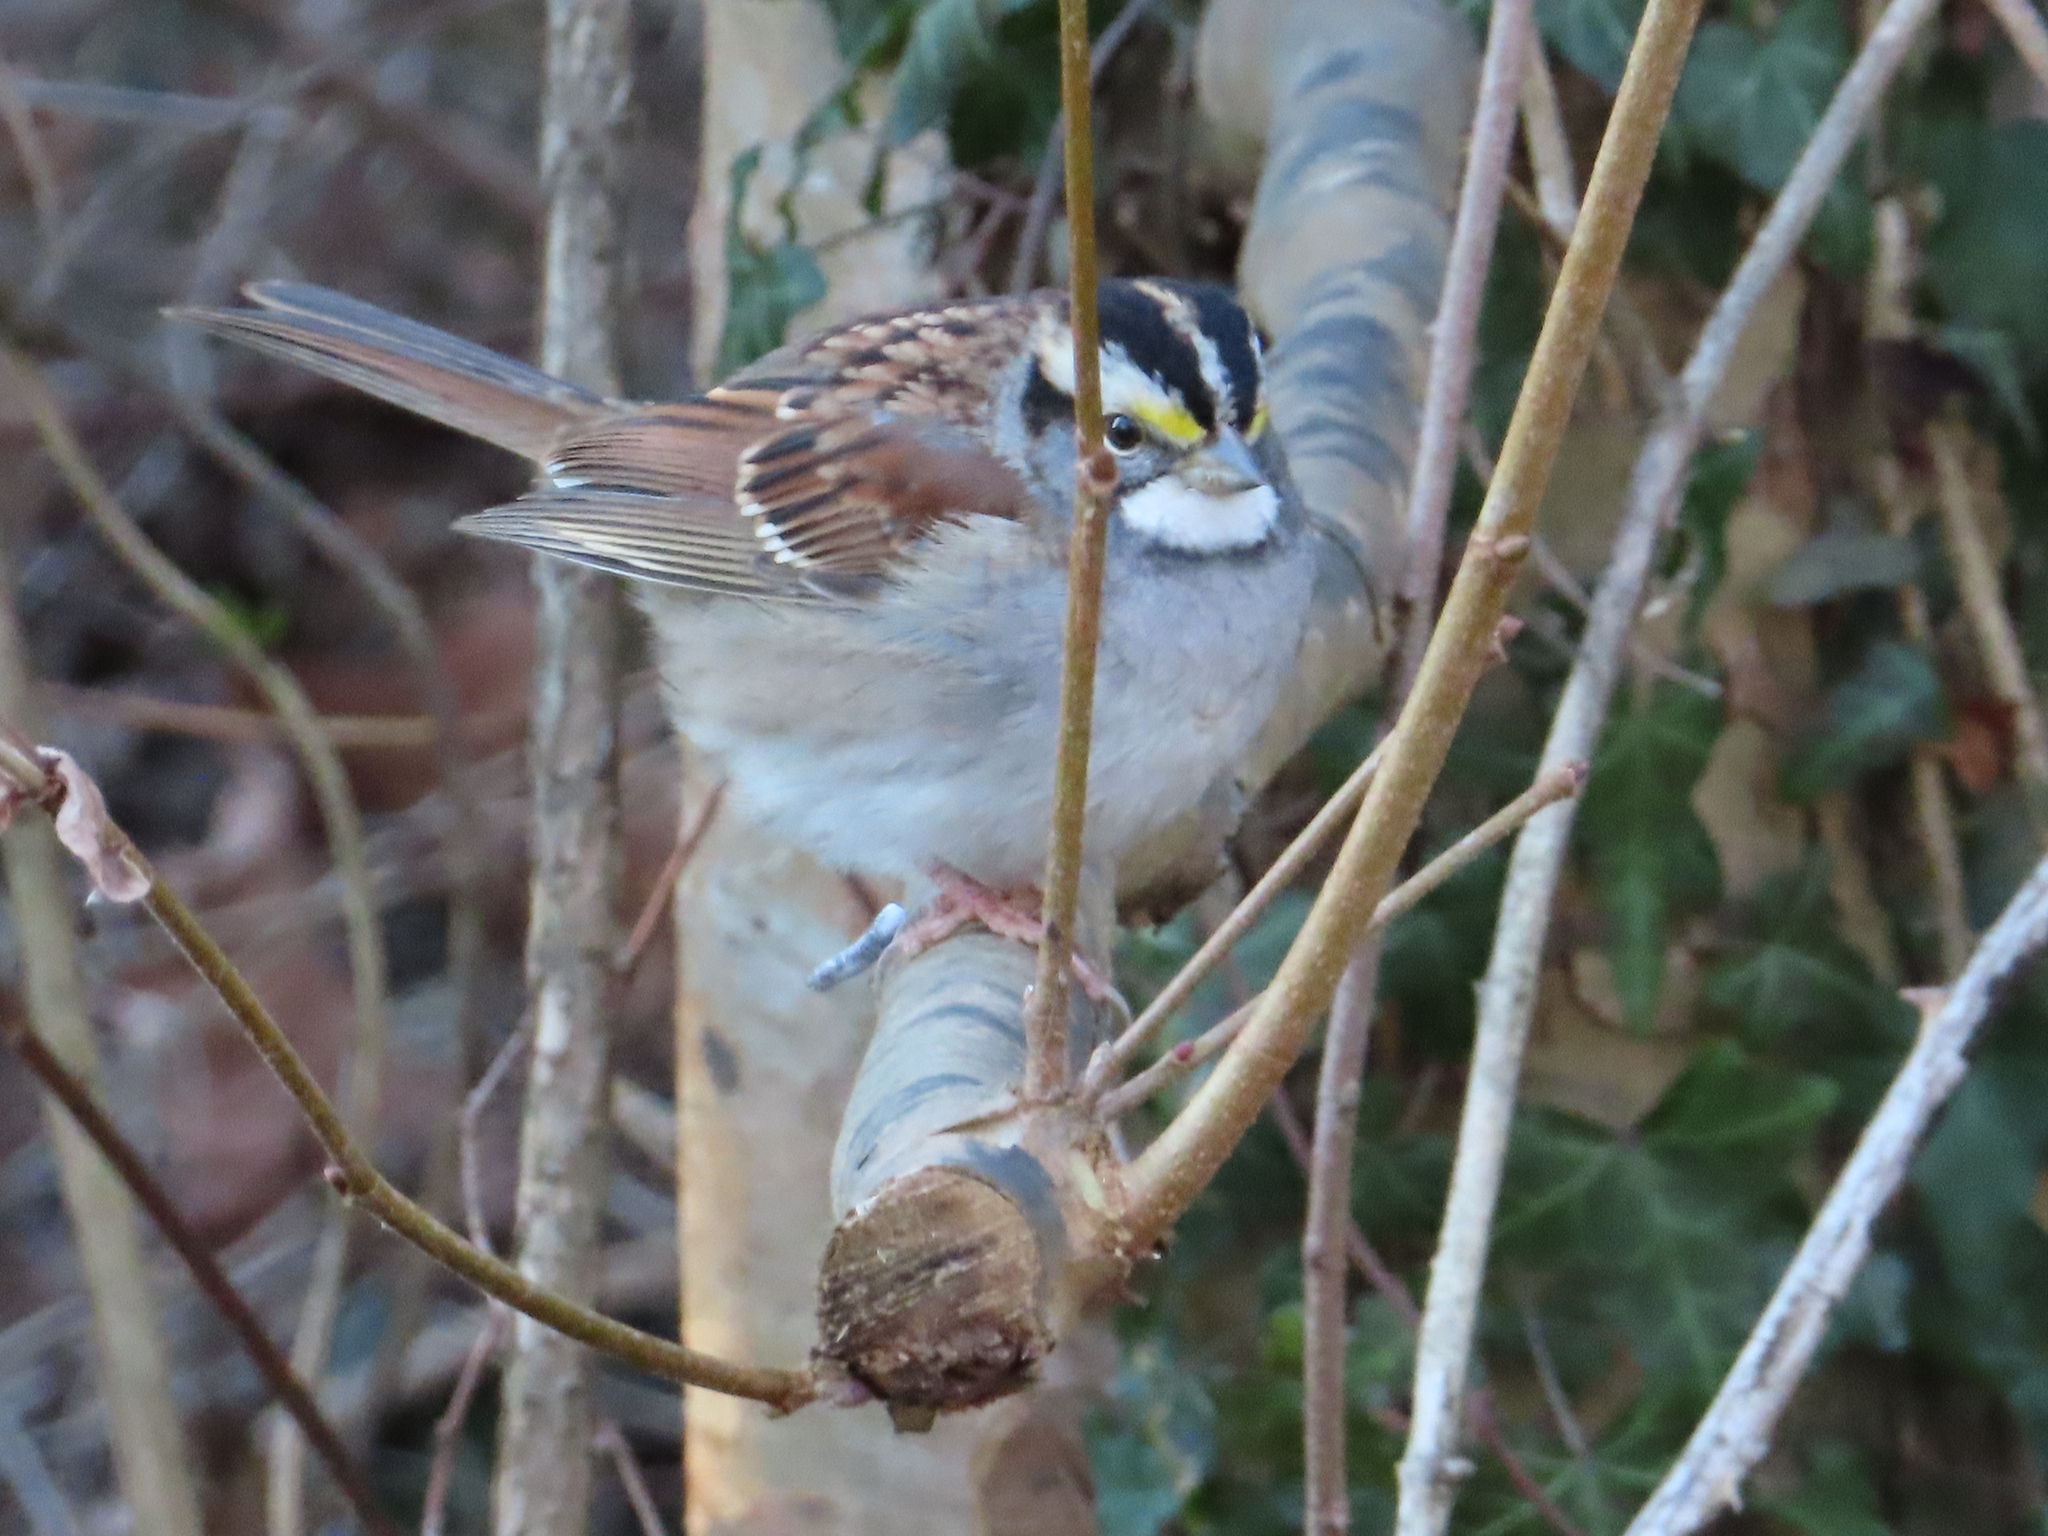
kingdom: Animalia
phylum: Chordata
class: Aves
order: Passeriformes
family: Passerellidae
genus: Zonotrichia
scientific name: Zonotrichia albicollis
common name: White-throated sparrow
